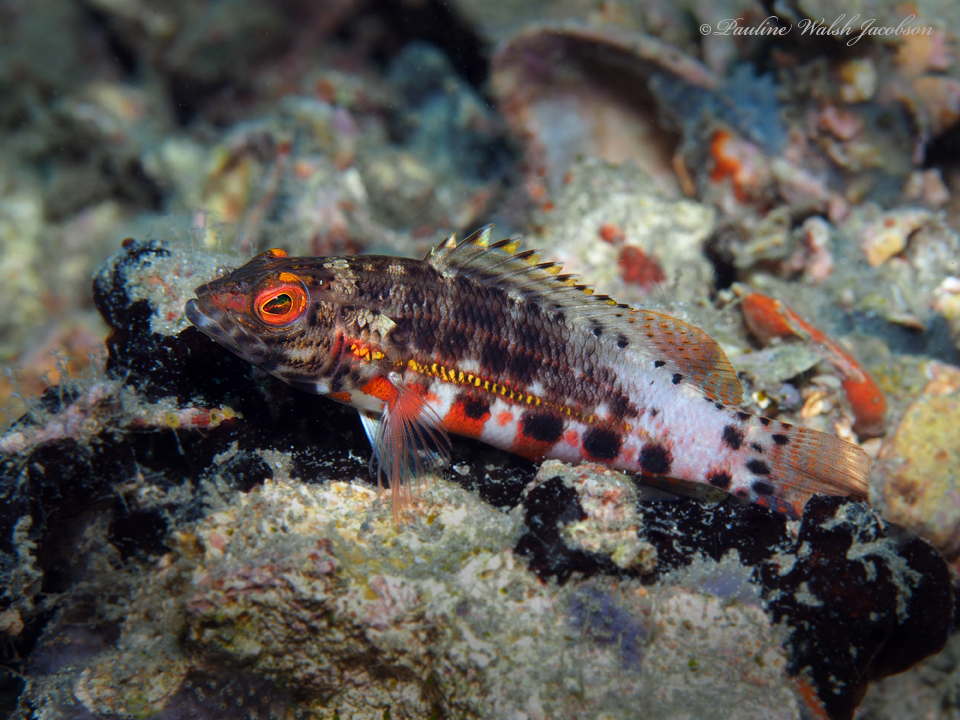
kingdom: Animalia
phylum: Chordata
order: Perciformes
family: Serranidae
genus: Serranus
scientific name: Serranus baldwini
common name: Lantern bass
